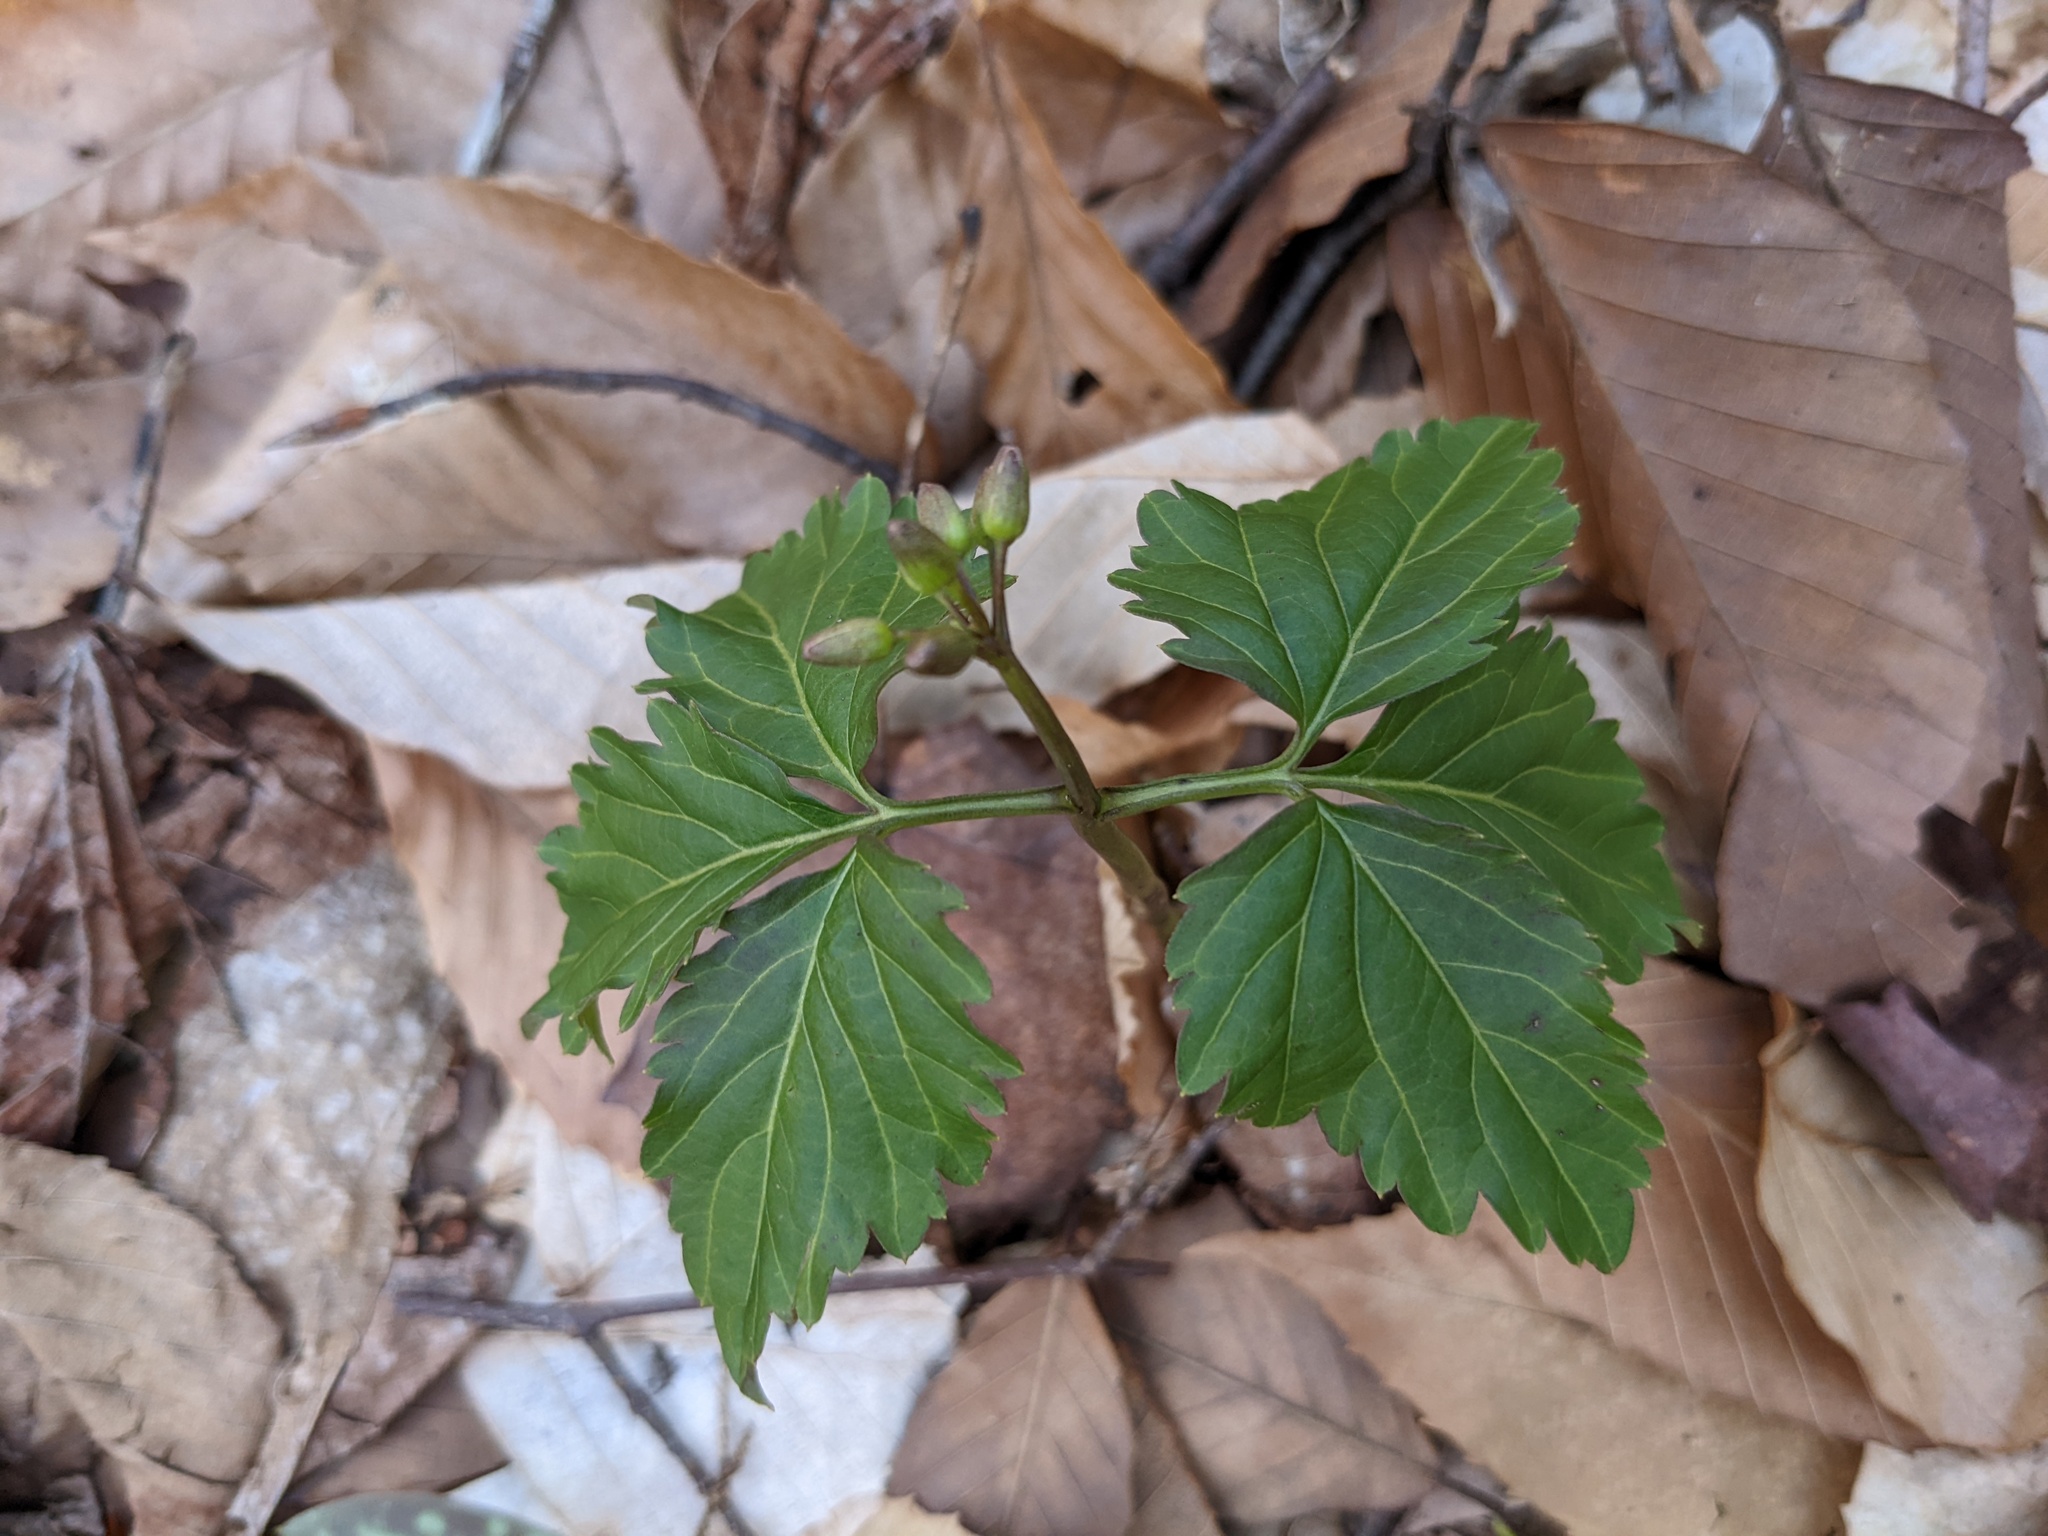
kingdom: Plantae
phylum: Tracheophyta
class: Magnoliopsida
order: Brassicales
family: Brassicaceae
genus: Cardamine
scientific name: Cardamine diphylla
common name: Broad-leaved toothwort
